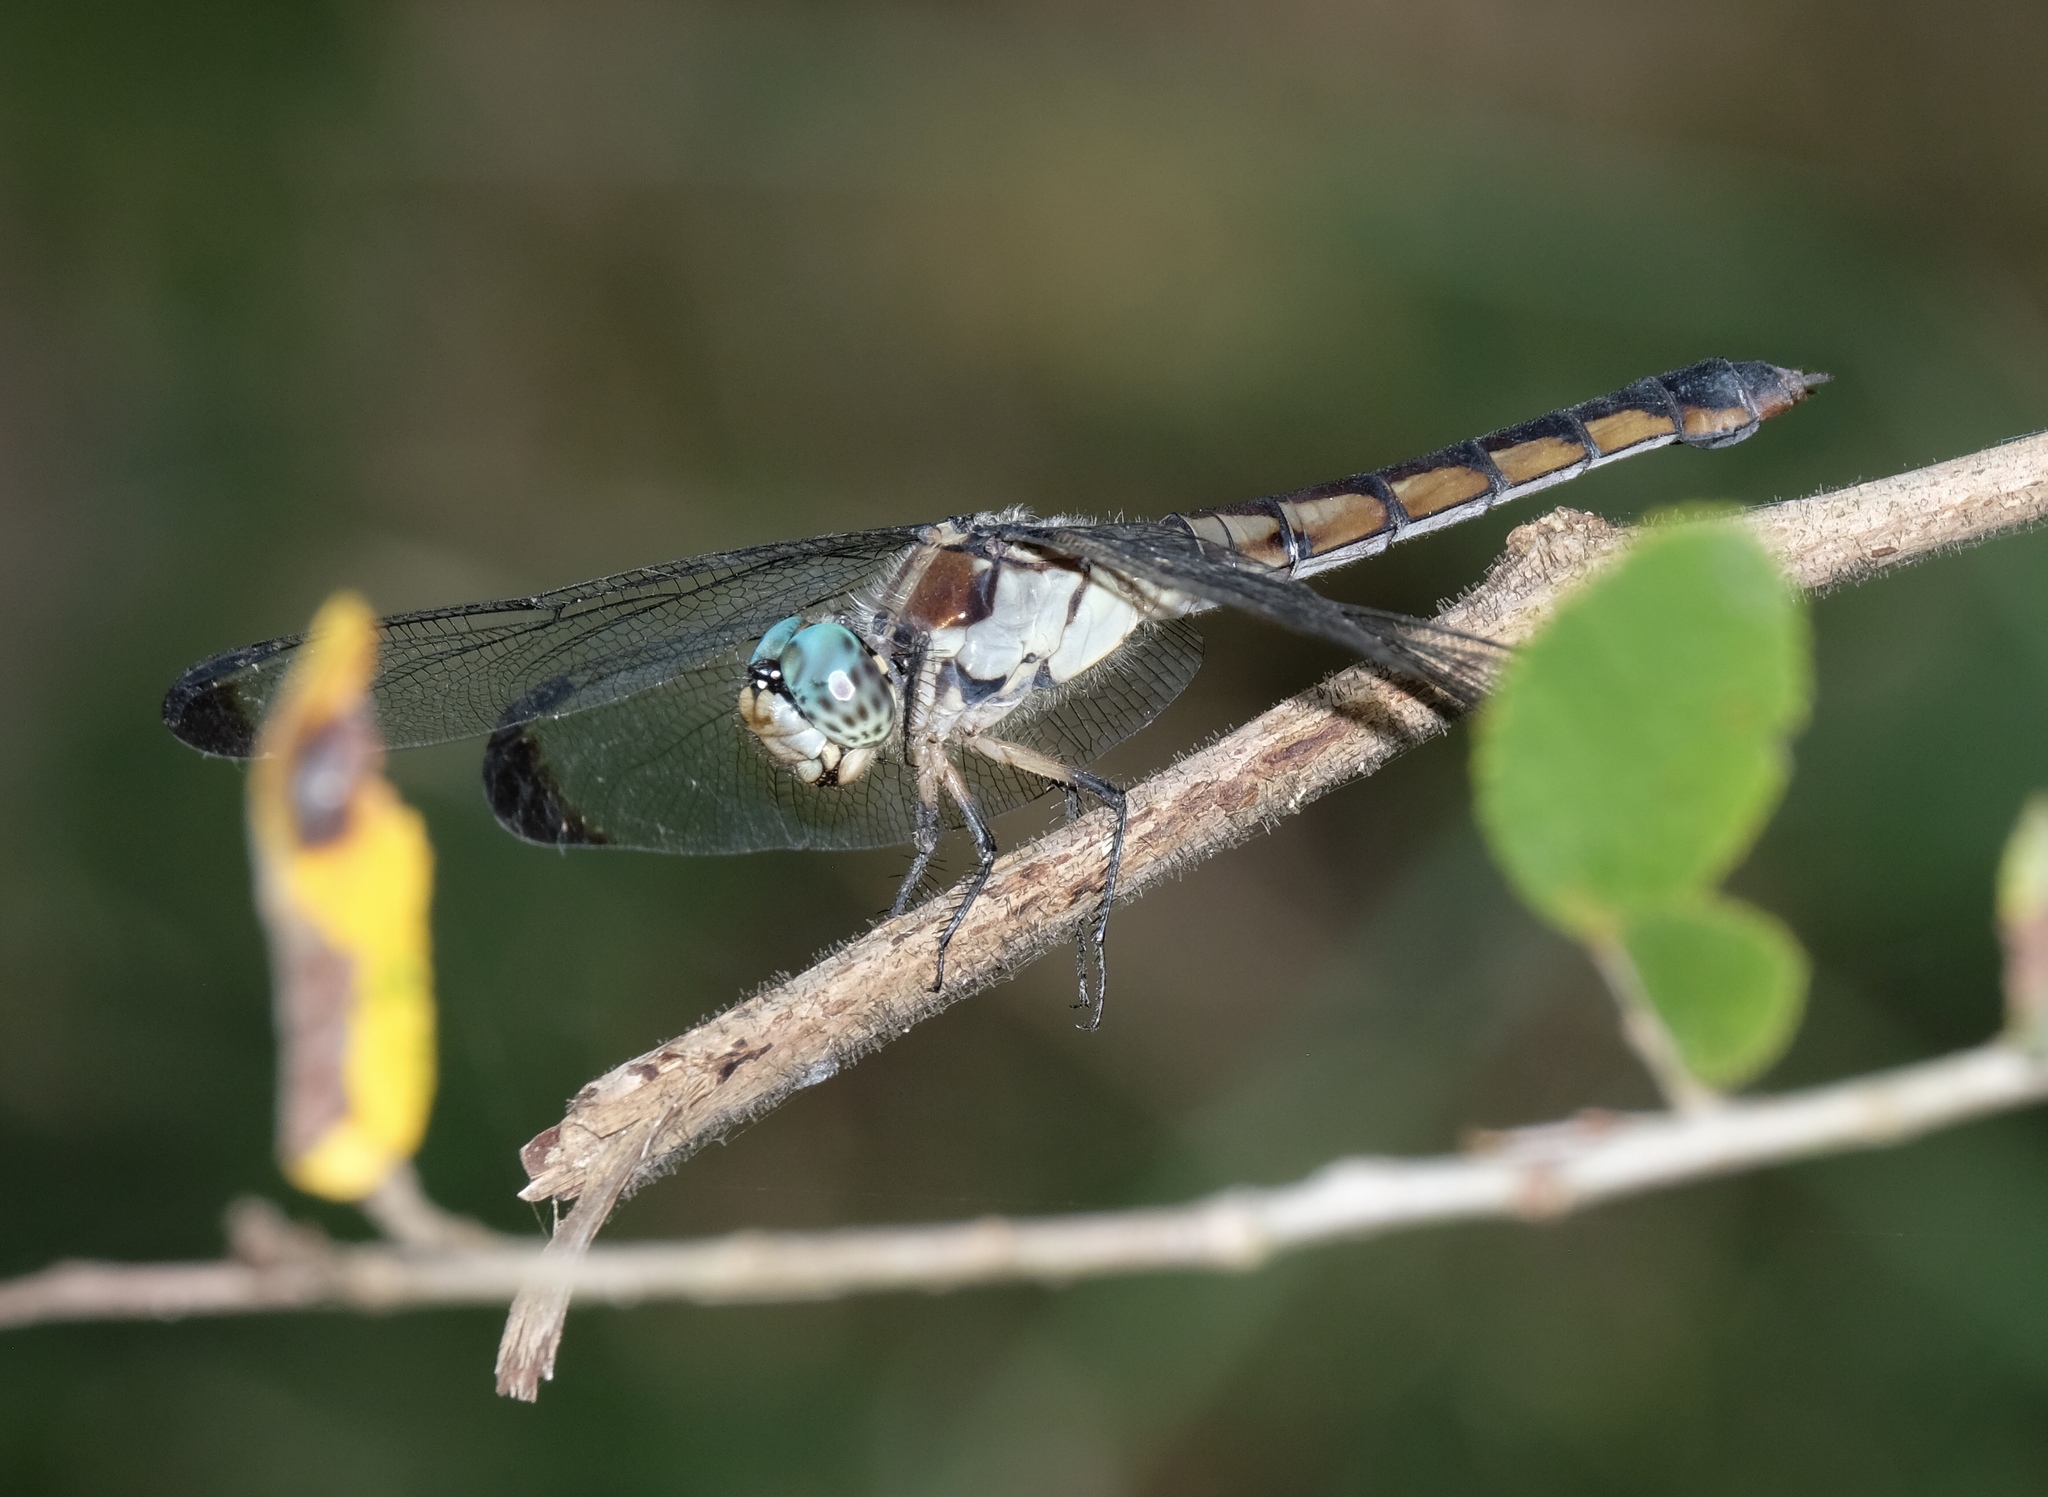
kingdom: Animalia
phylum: Arthropoda
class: Insecta
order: Odonata
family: Libellulidae
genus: Libellula
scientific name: Libellula vibrans
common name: Great blue skimmer
